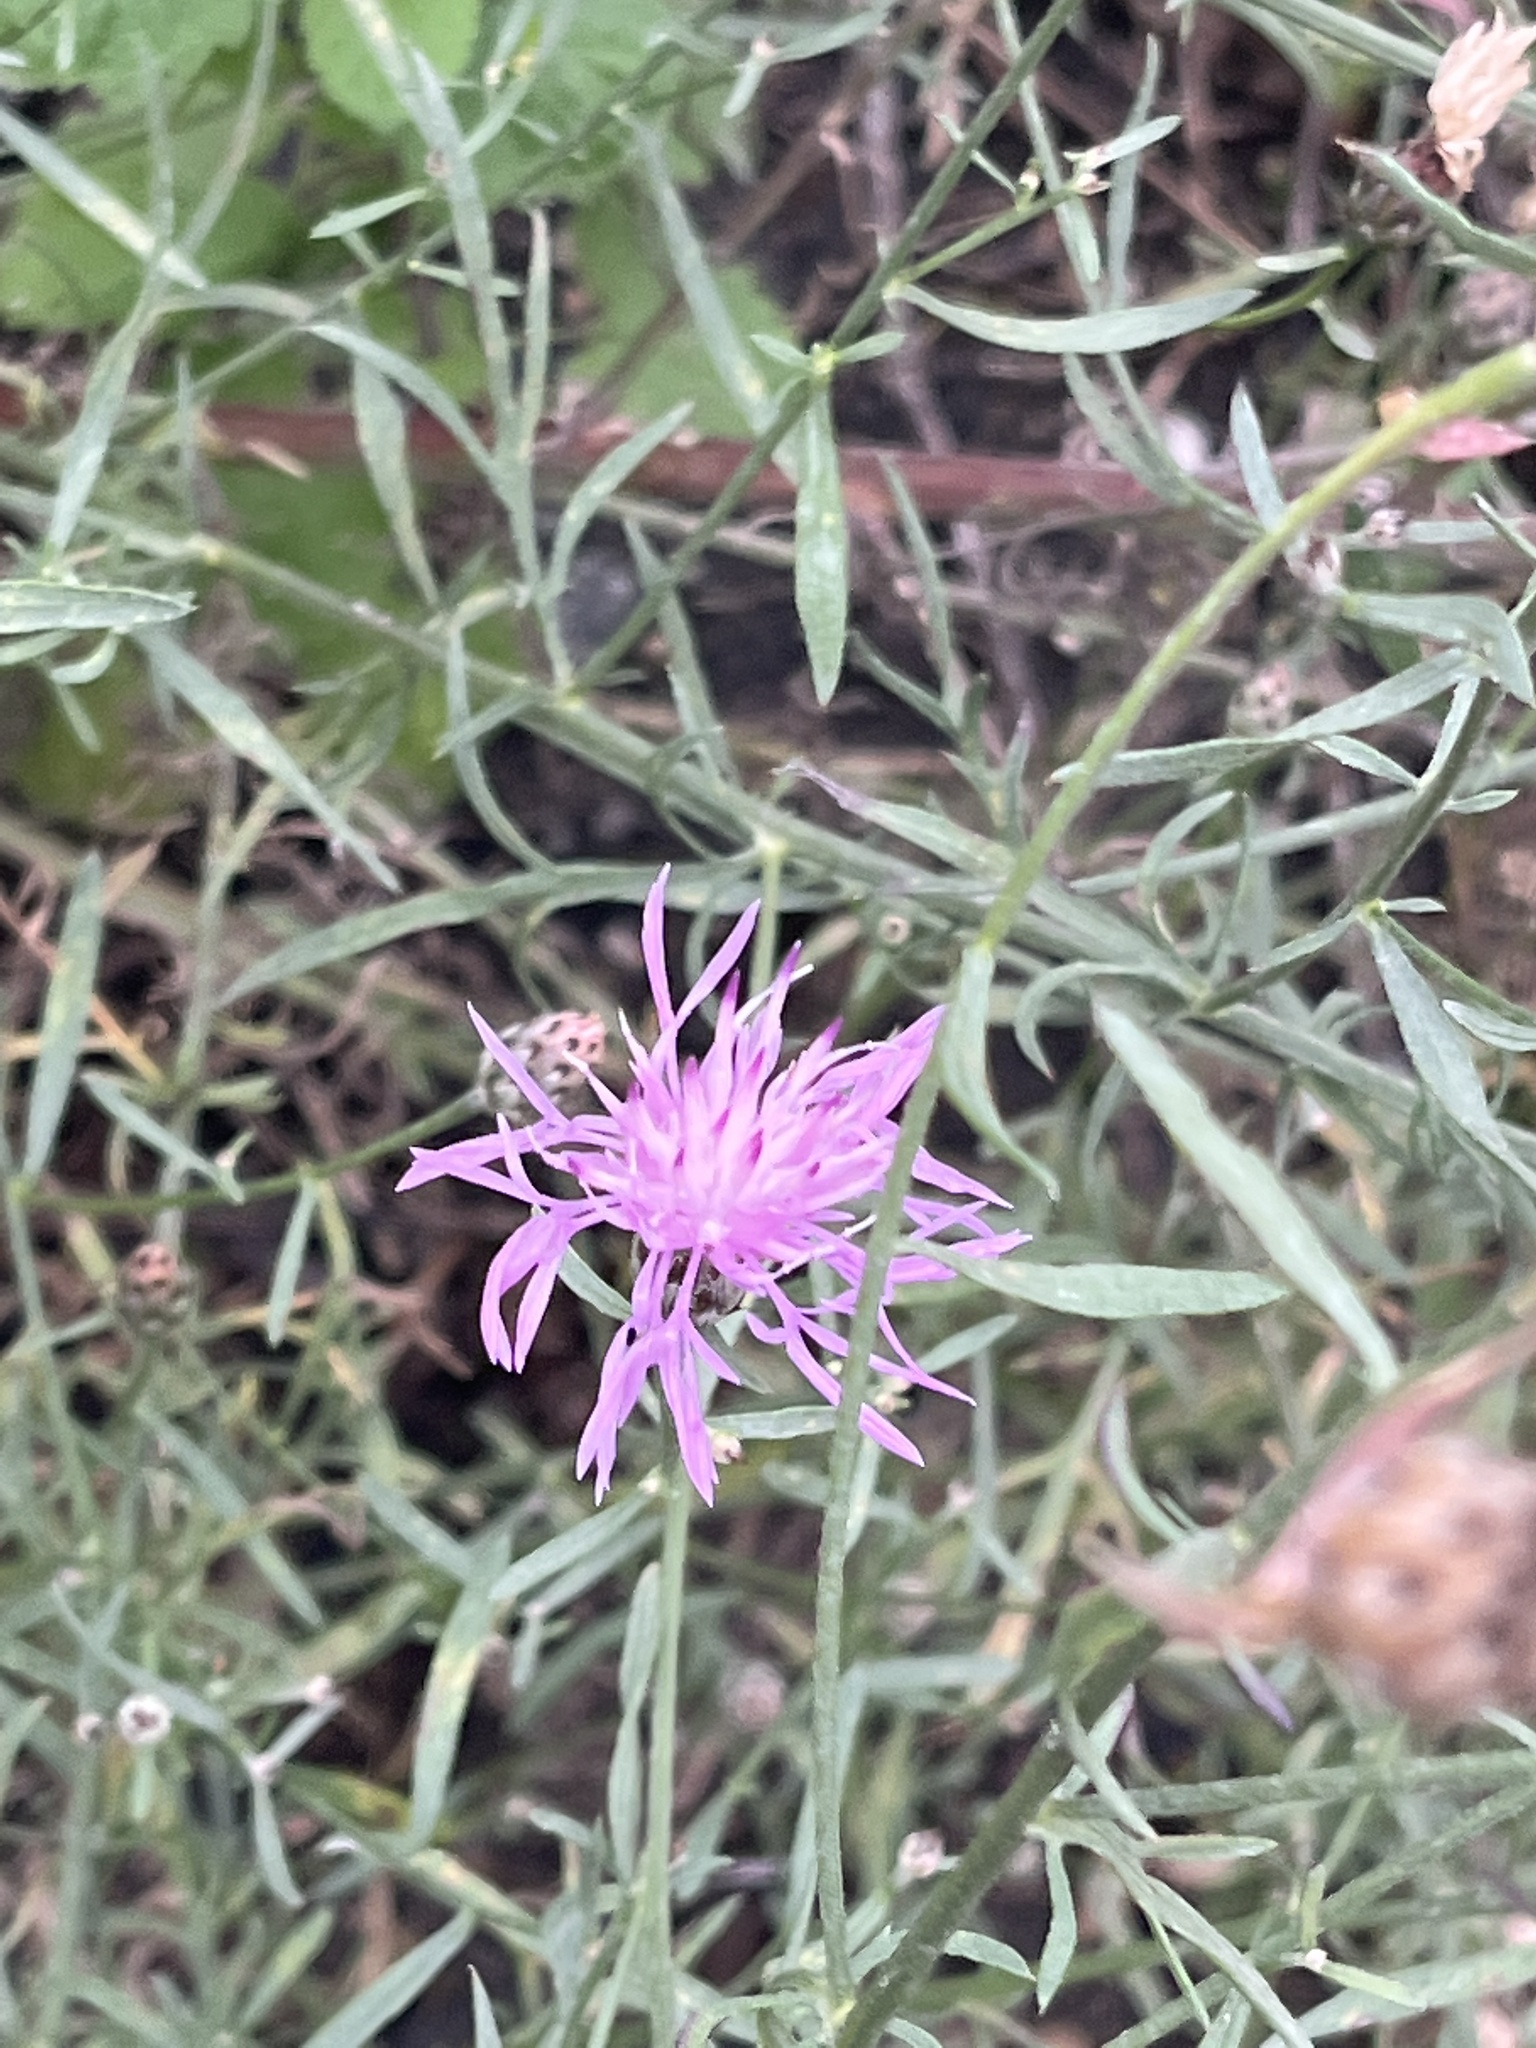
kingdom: Plantae
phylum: Tracheophyta
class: Magnoliopsida
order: Asterales
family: Asteraceae
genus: Centaurea
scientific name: Centaurea stoebe
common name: Spotted knapweed
